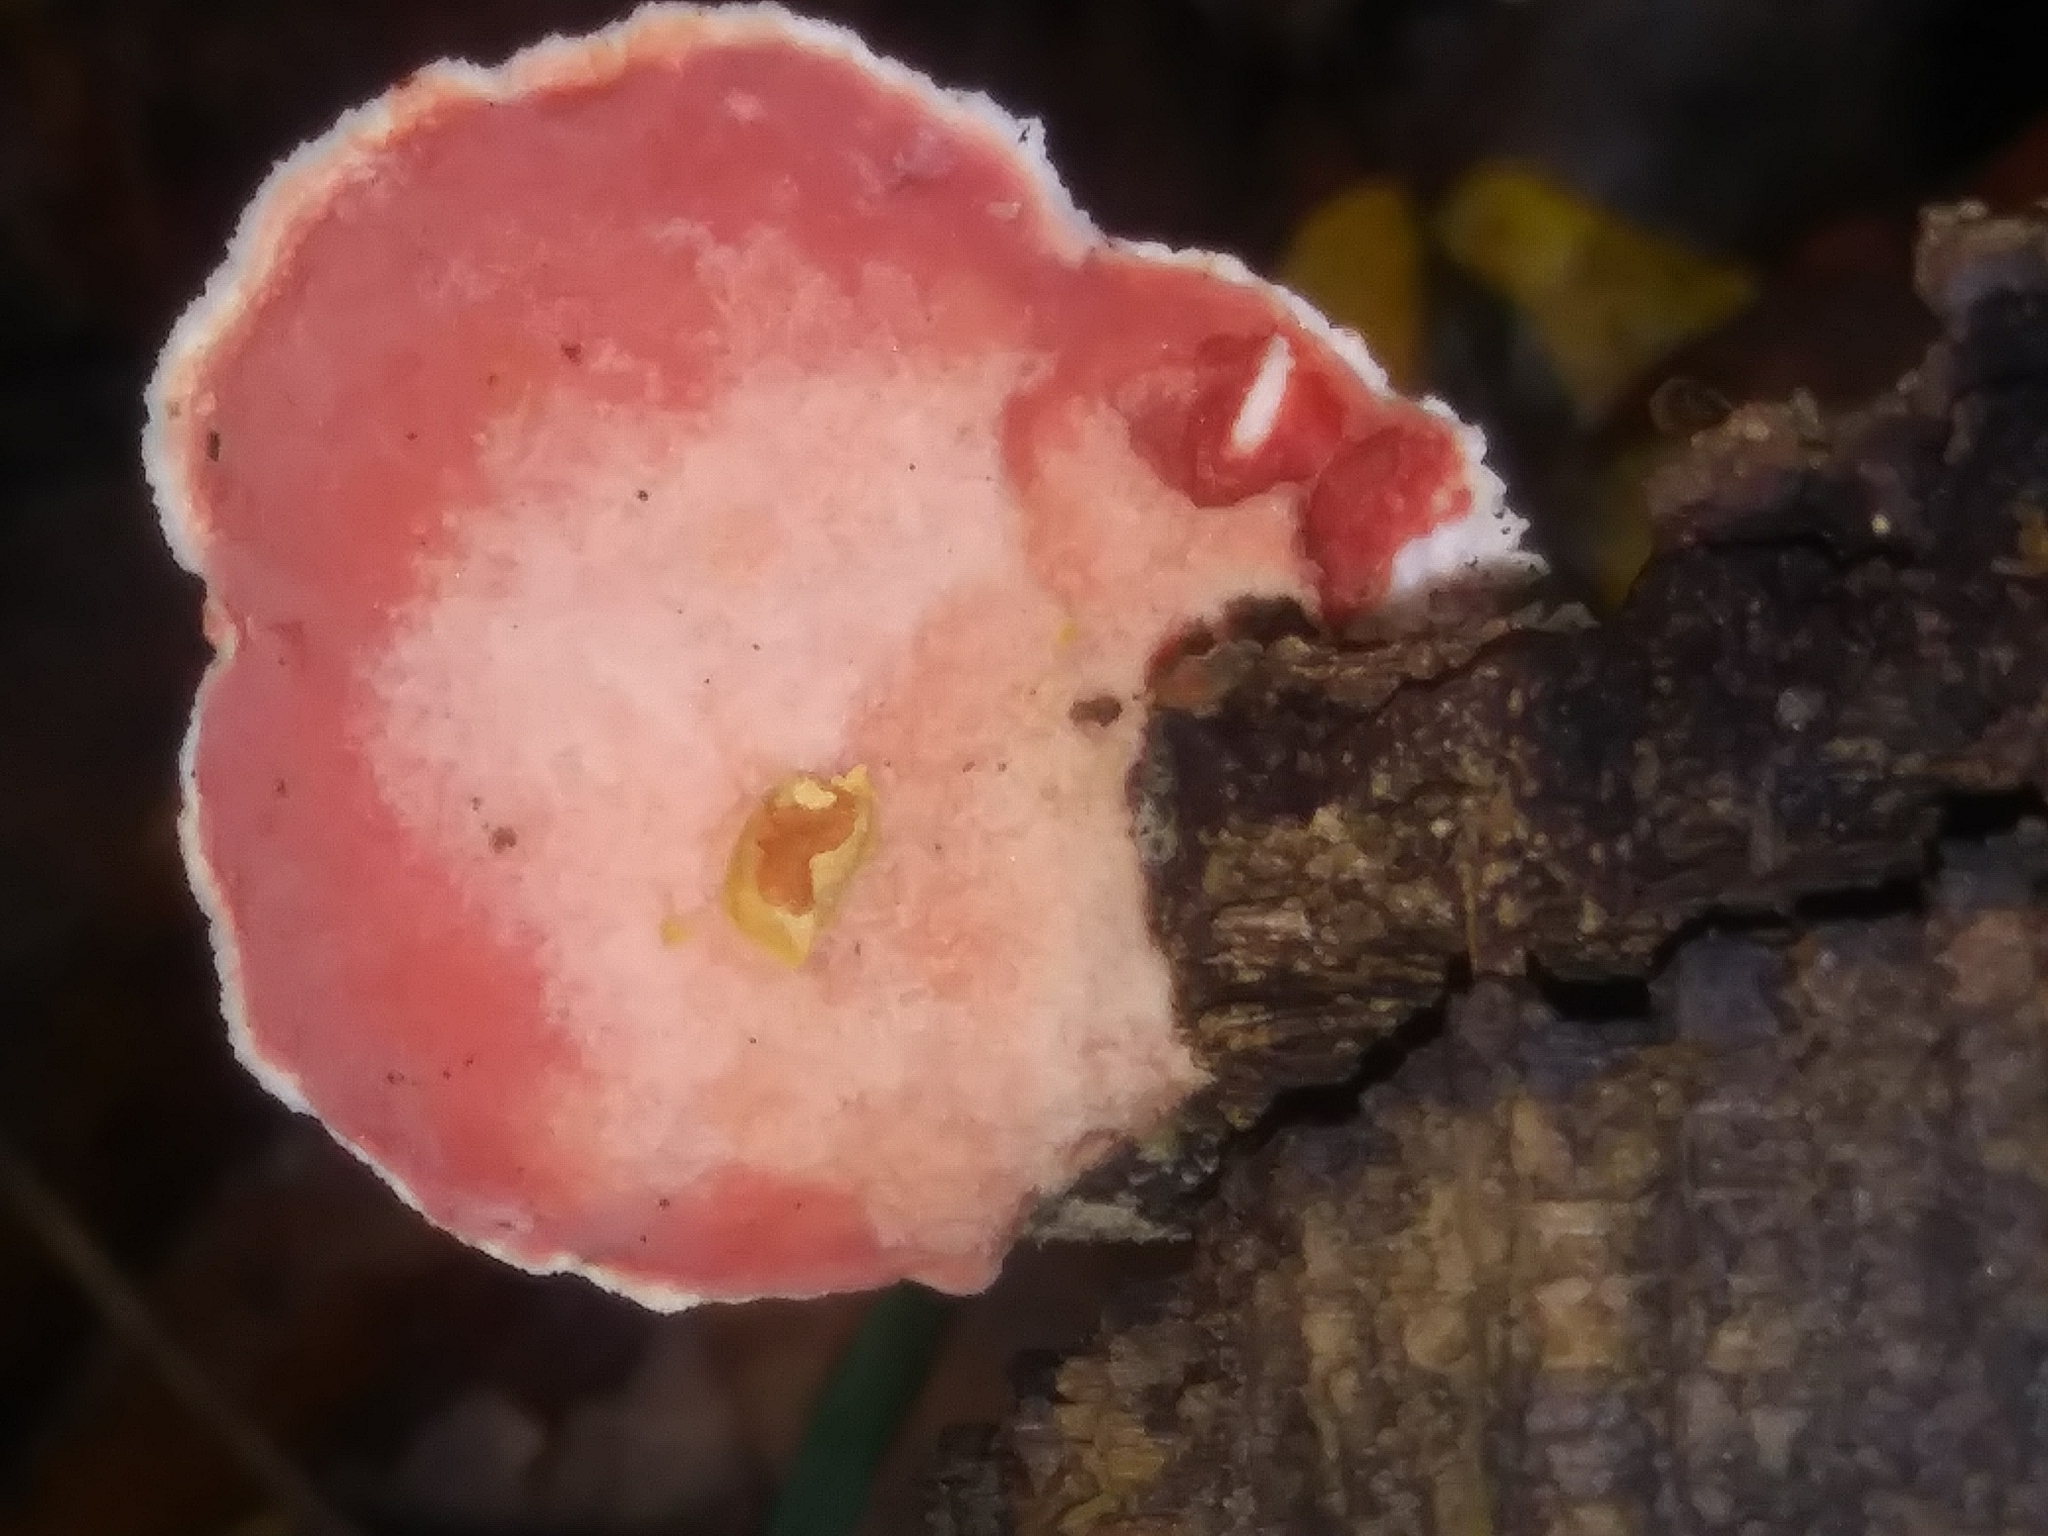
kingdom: Fungi
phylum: Basidiomycota
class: Agaricomycetes
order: Polyporales
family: Irpicaceae
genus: Byssomerulius
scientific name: Byssomerulius incarnatus
